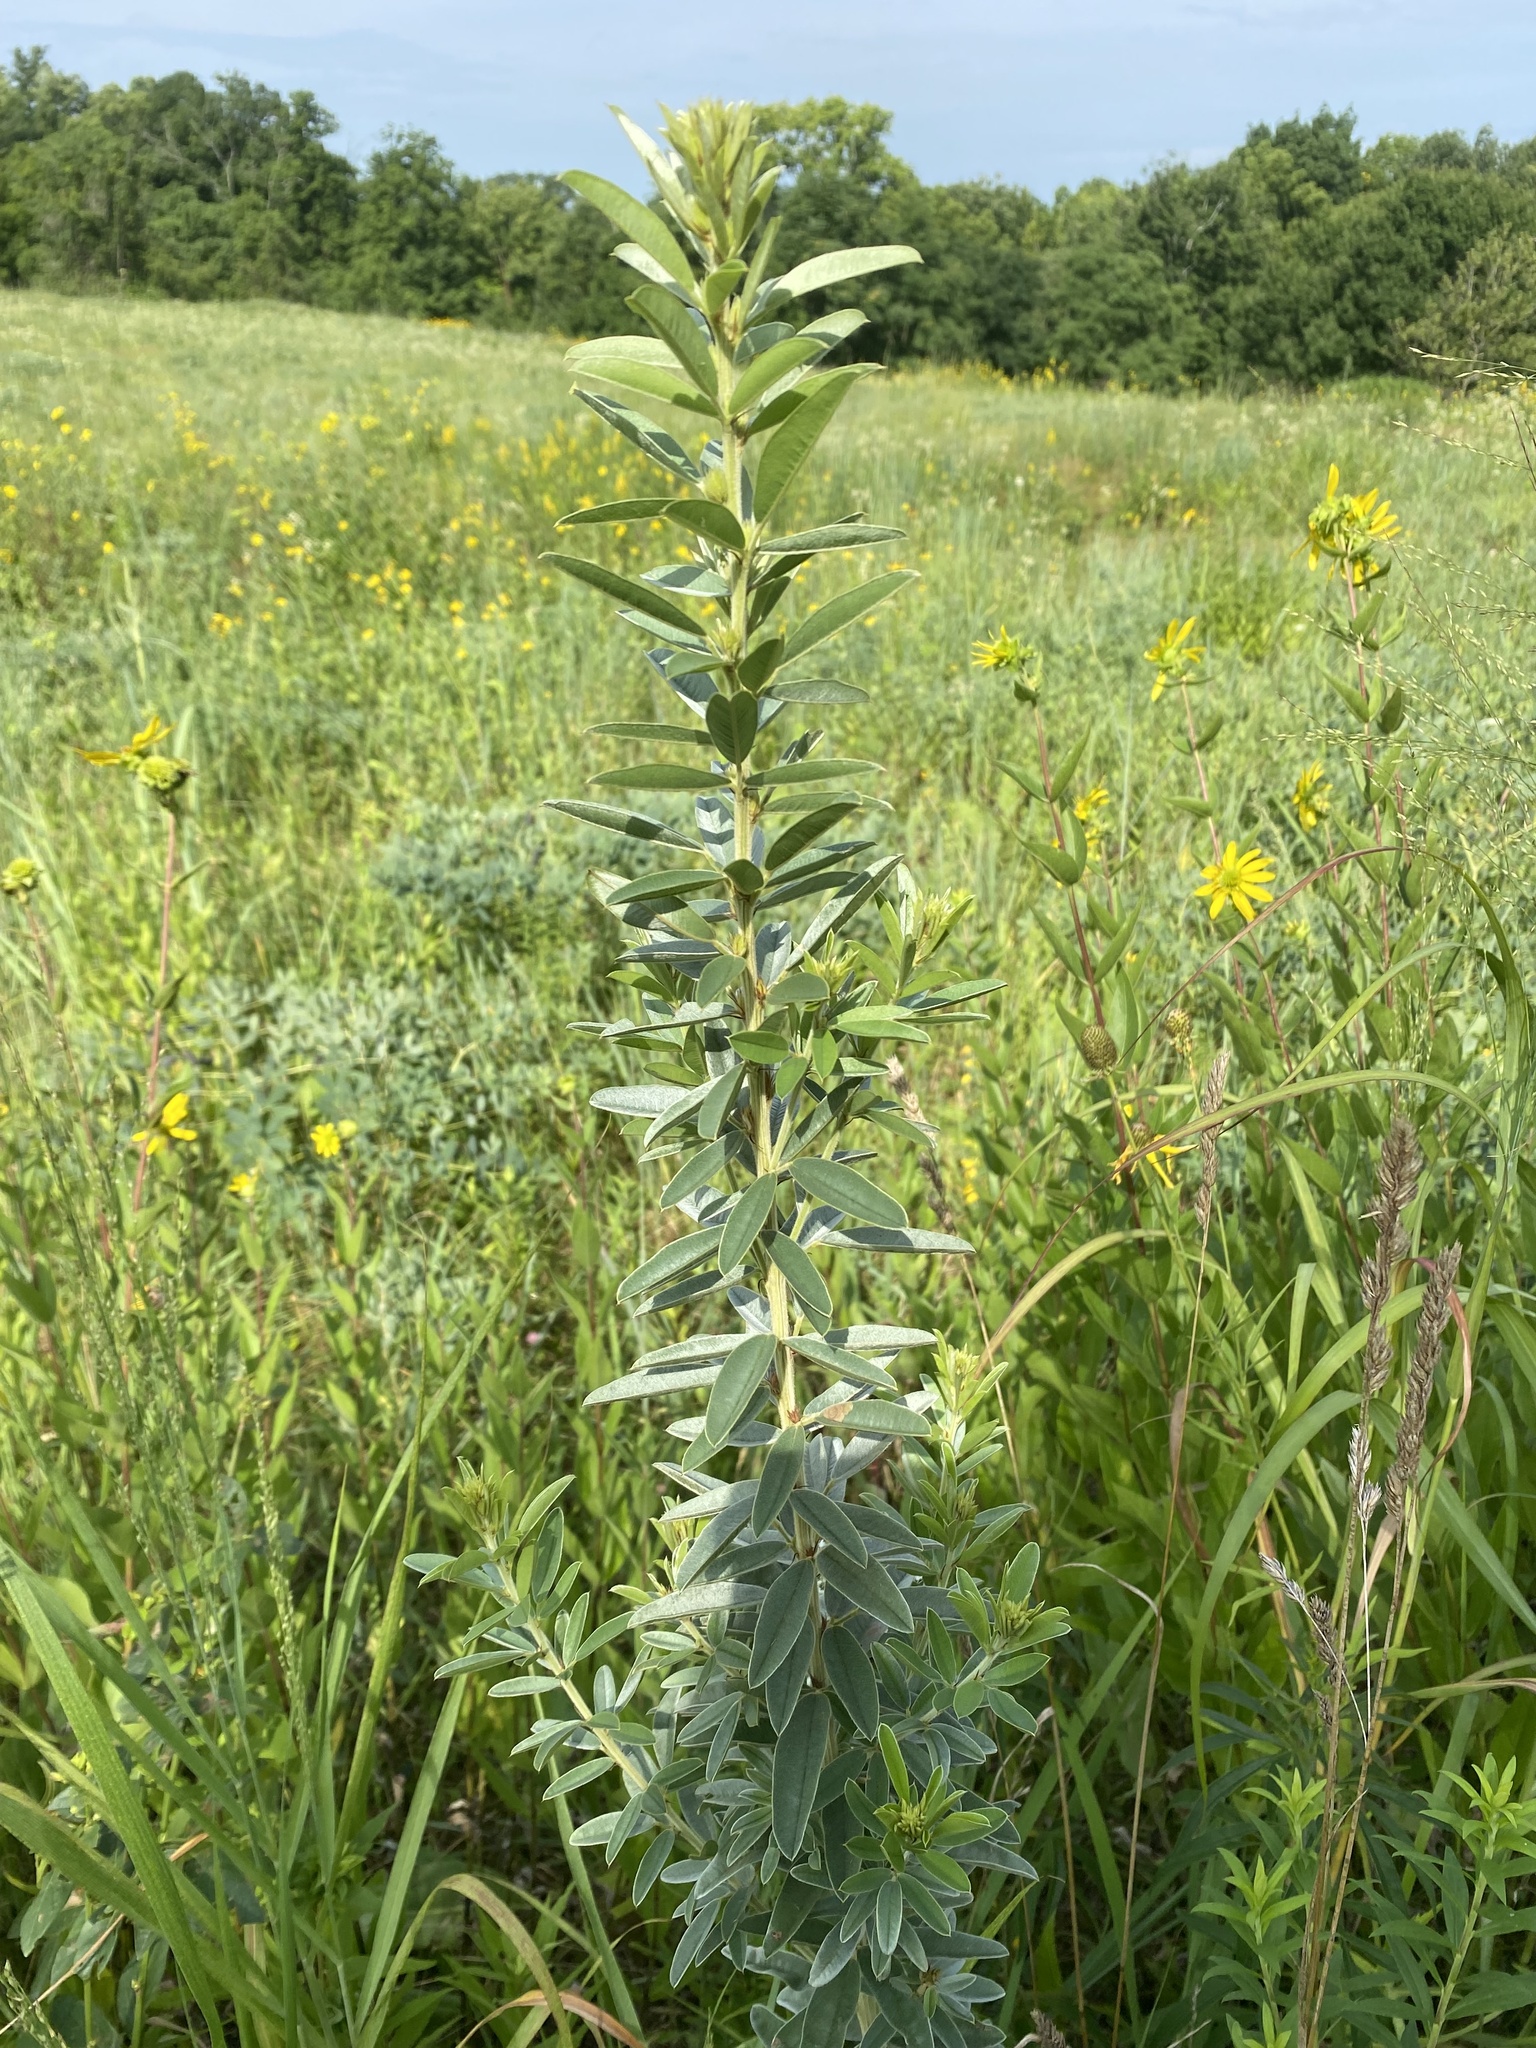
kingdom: Plantae
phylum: Tracheophyta
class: Magnoliopsida
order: Fabales
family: Fabaceae
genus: Lespedeza
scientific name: Lespedeza capitata
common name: Dusty clover
